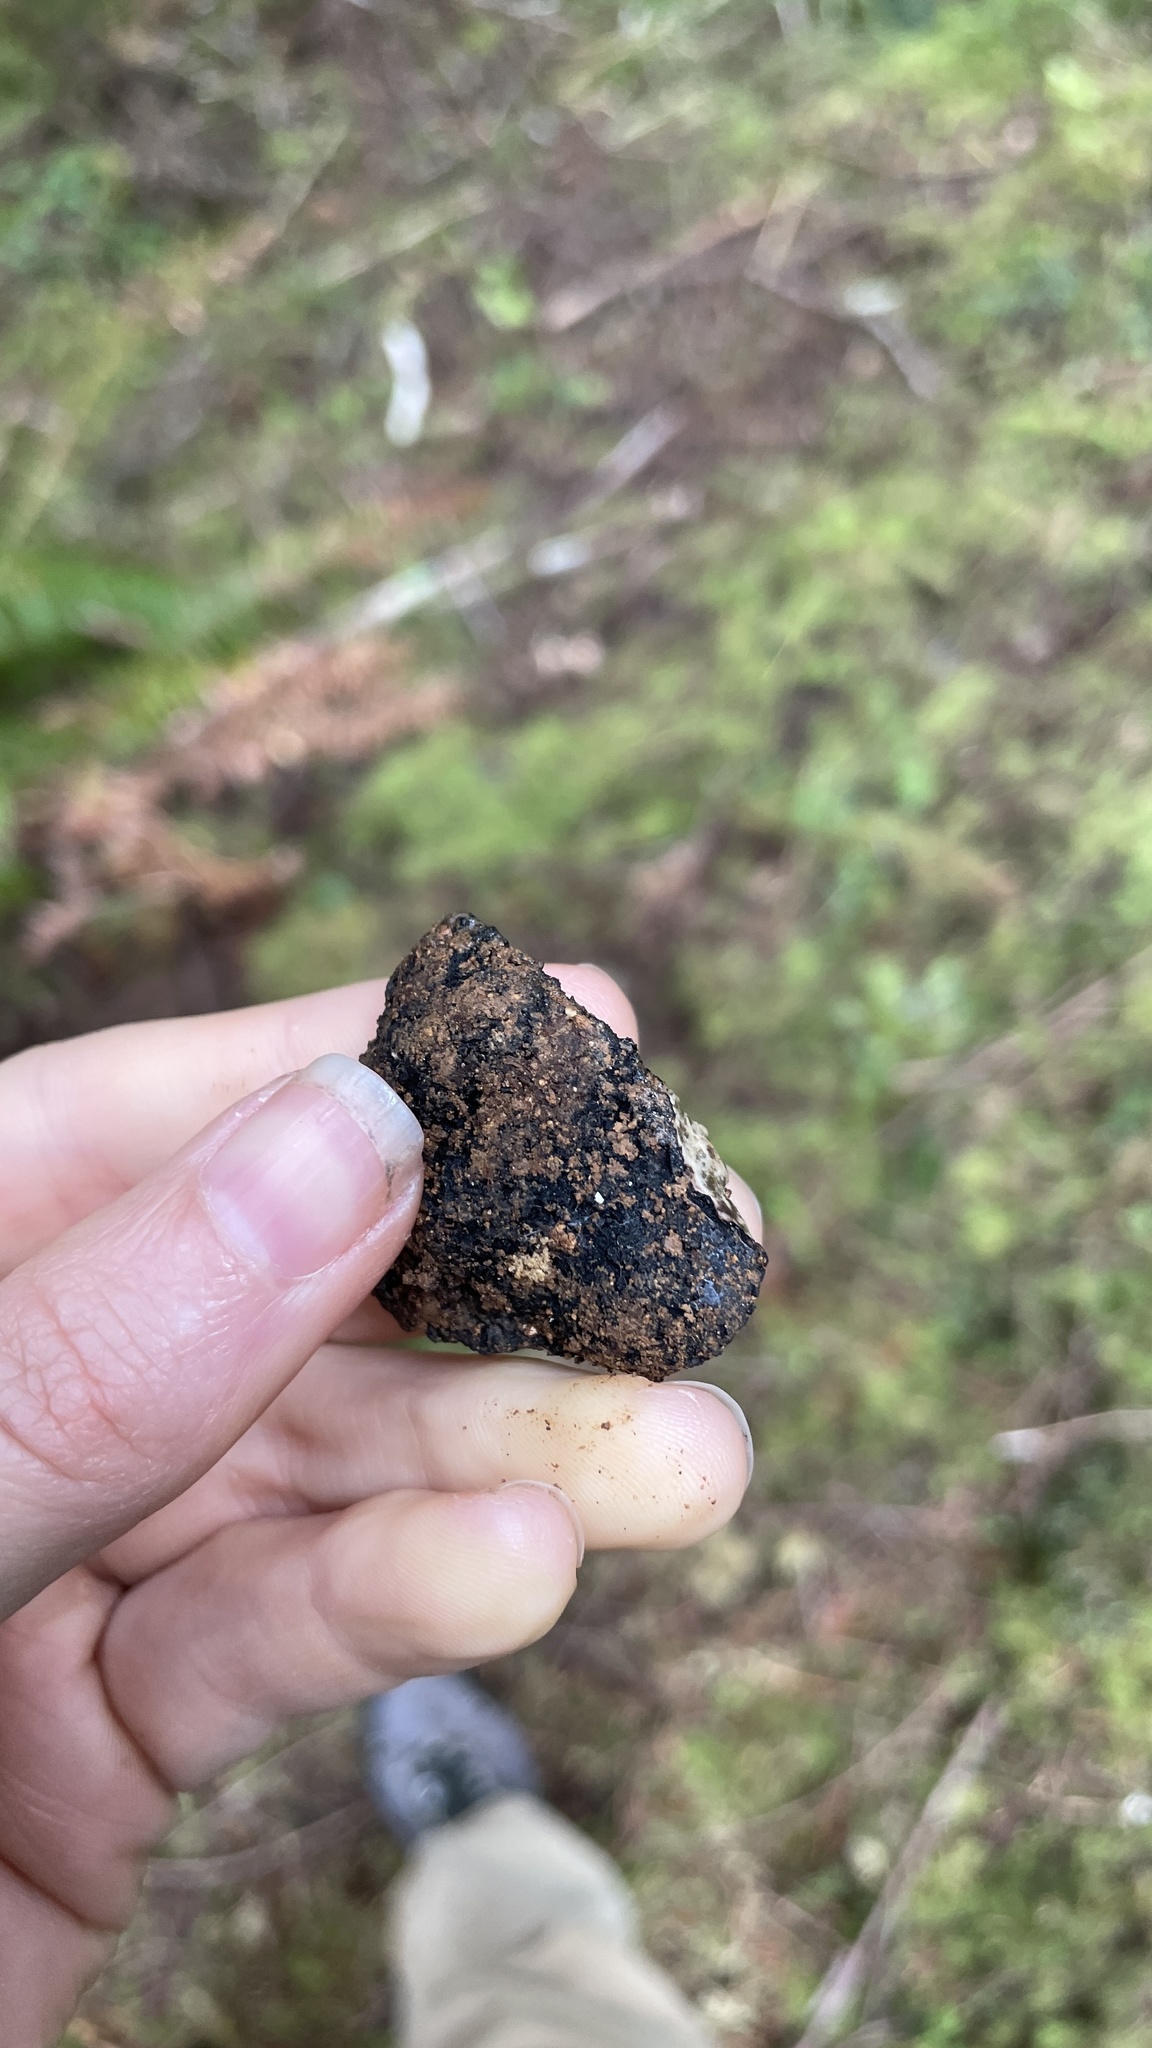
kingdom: Fungi
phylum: Ascomycota
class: Pezizomycetes
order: Pezizales
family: Morchellaceae
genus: Leucangium
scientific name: Leucangium carthusianum
